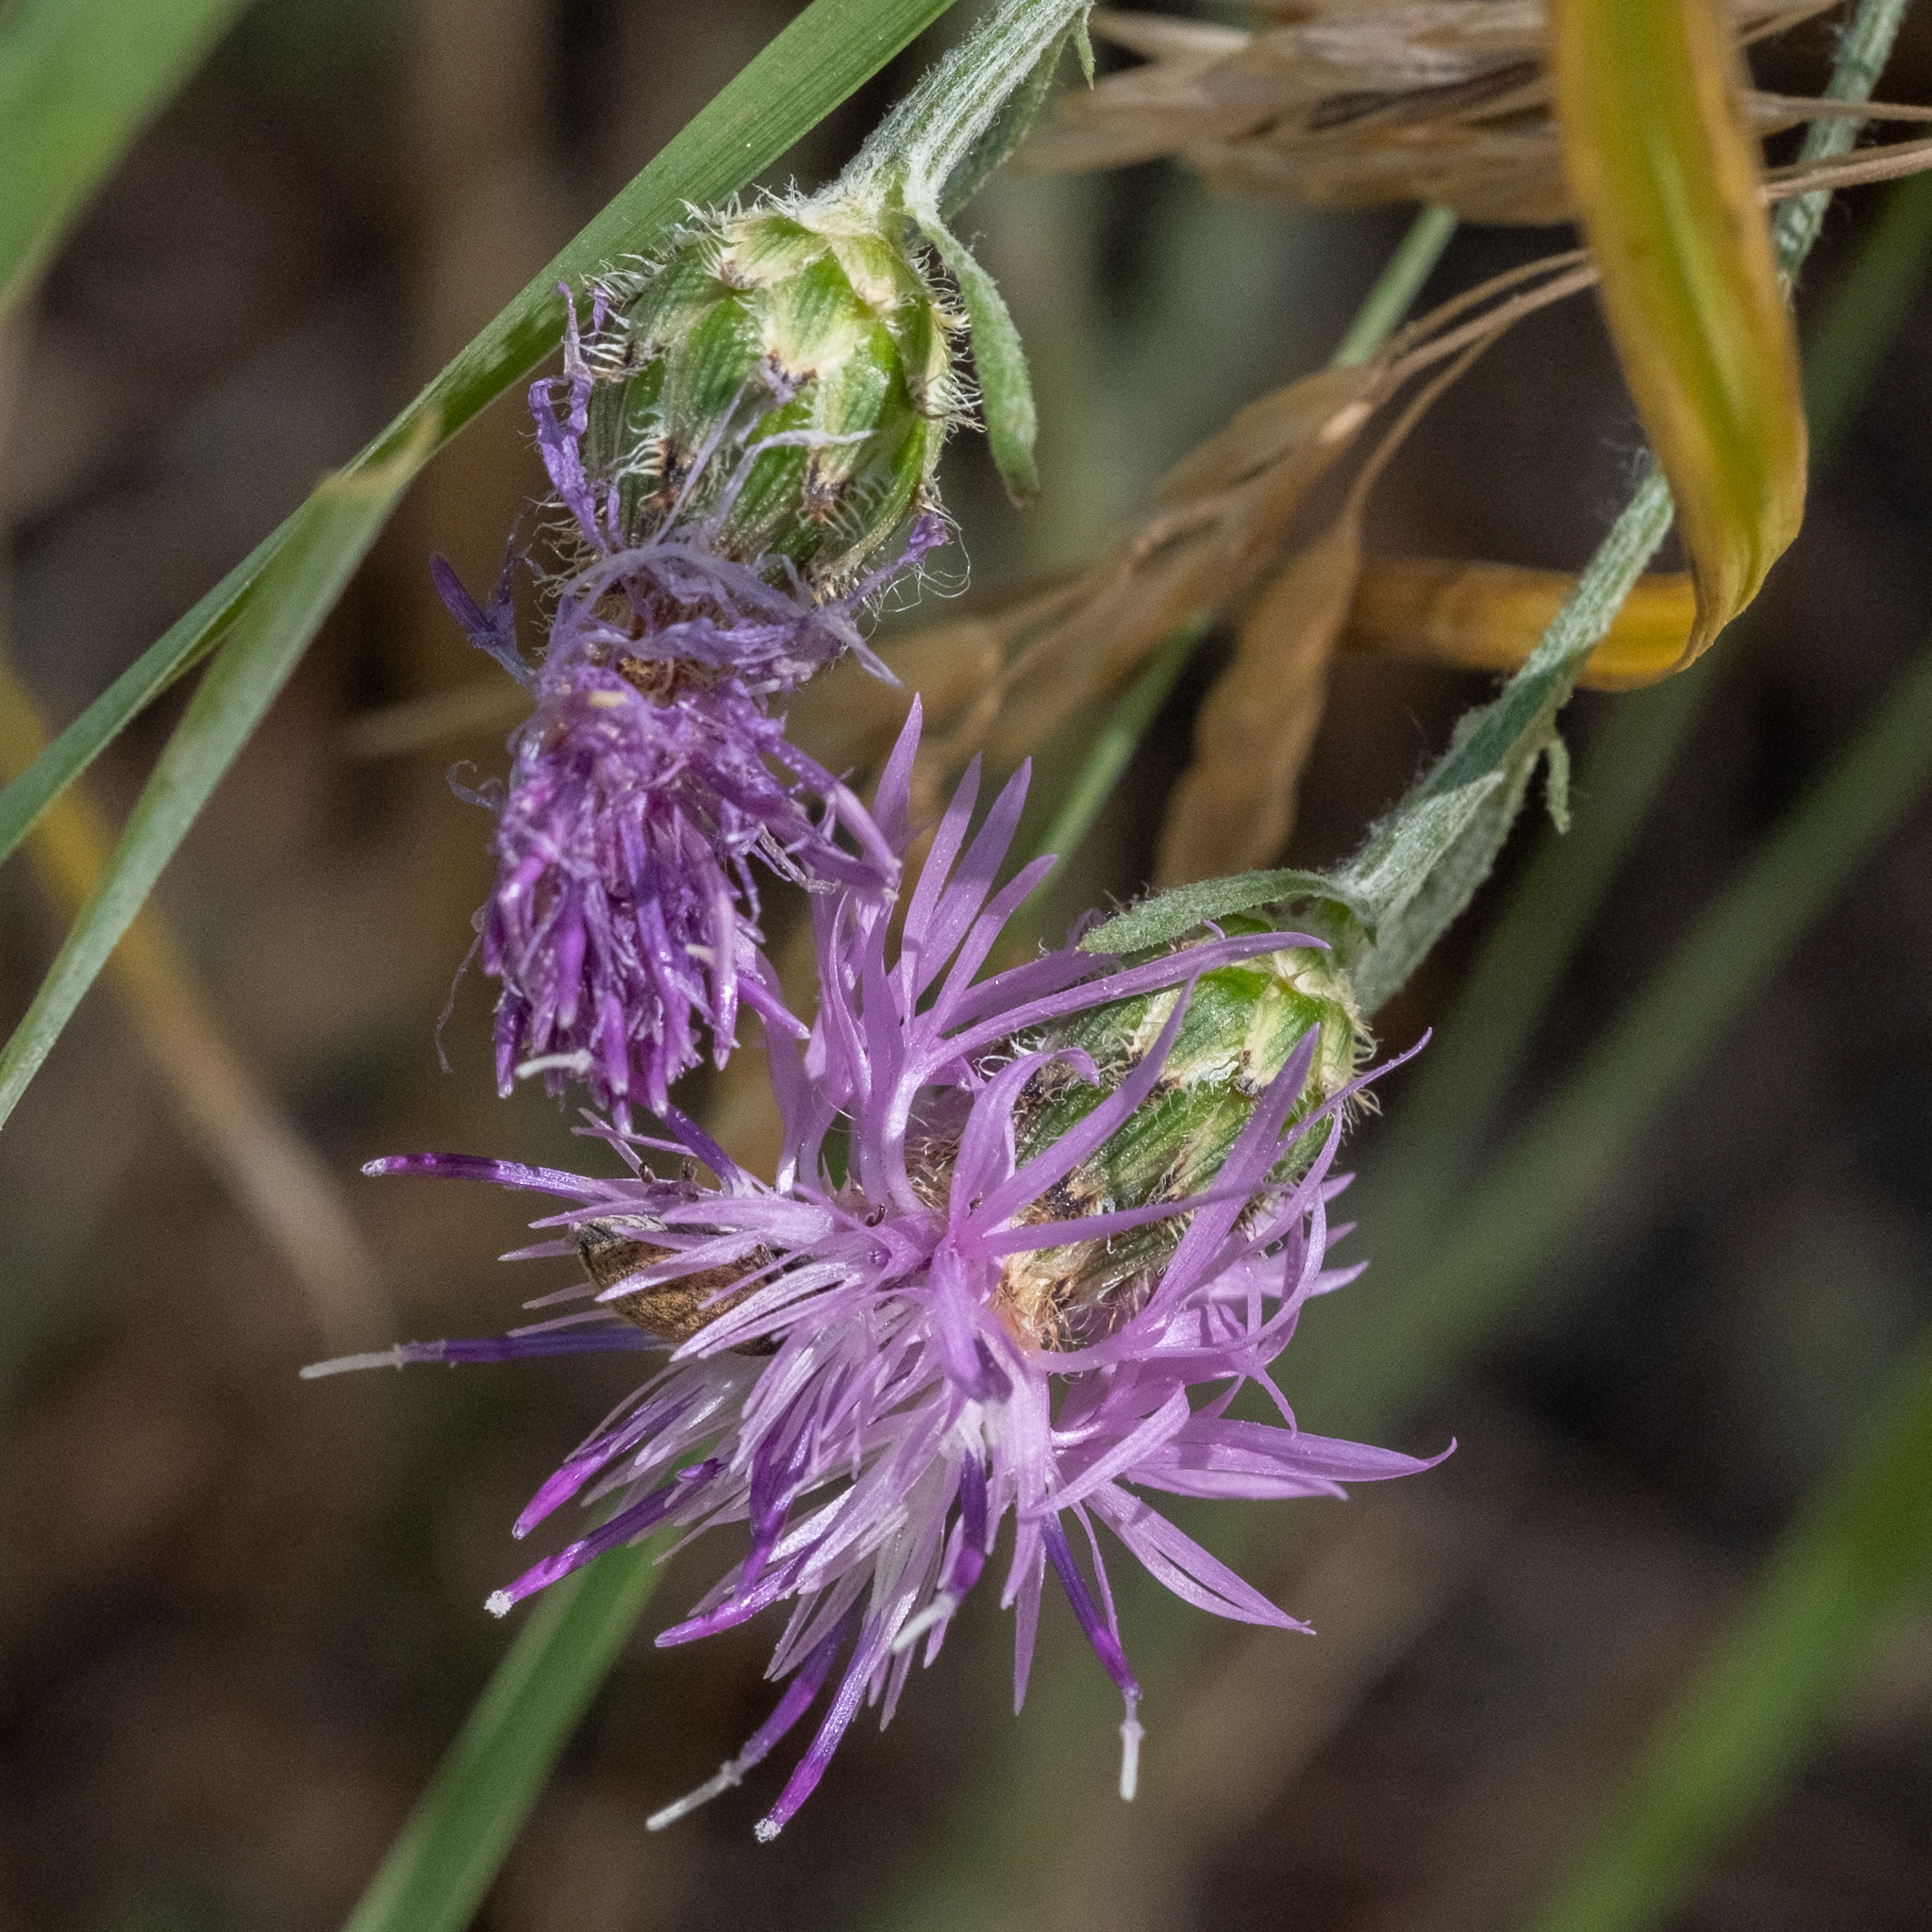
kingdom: Plantae
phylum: Tracheophyta
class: Magnoliopsida
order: Asterales
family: Asteraceae
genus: Centaurea
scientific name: Centaurea stoebe
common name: Spotted knapweed
